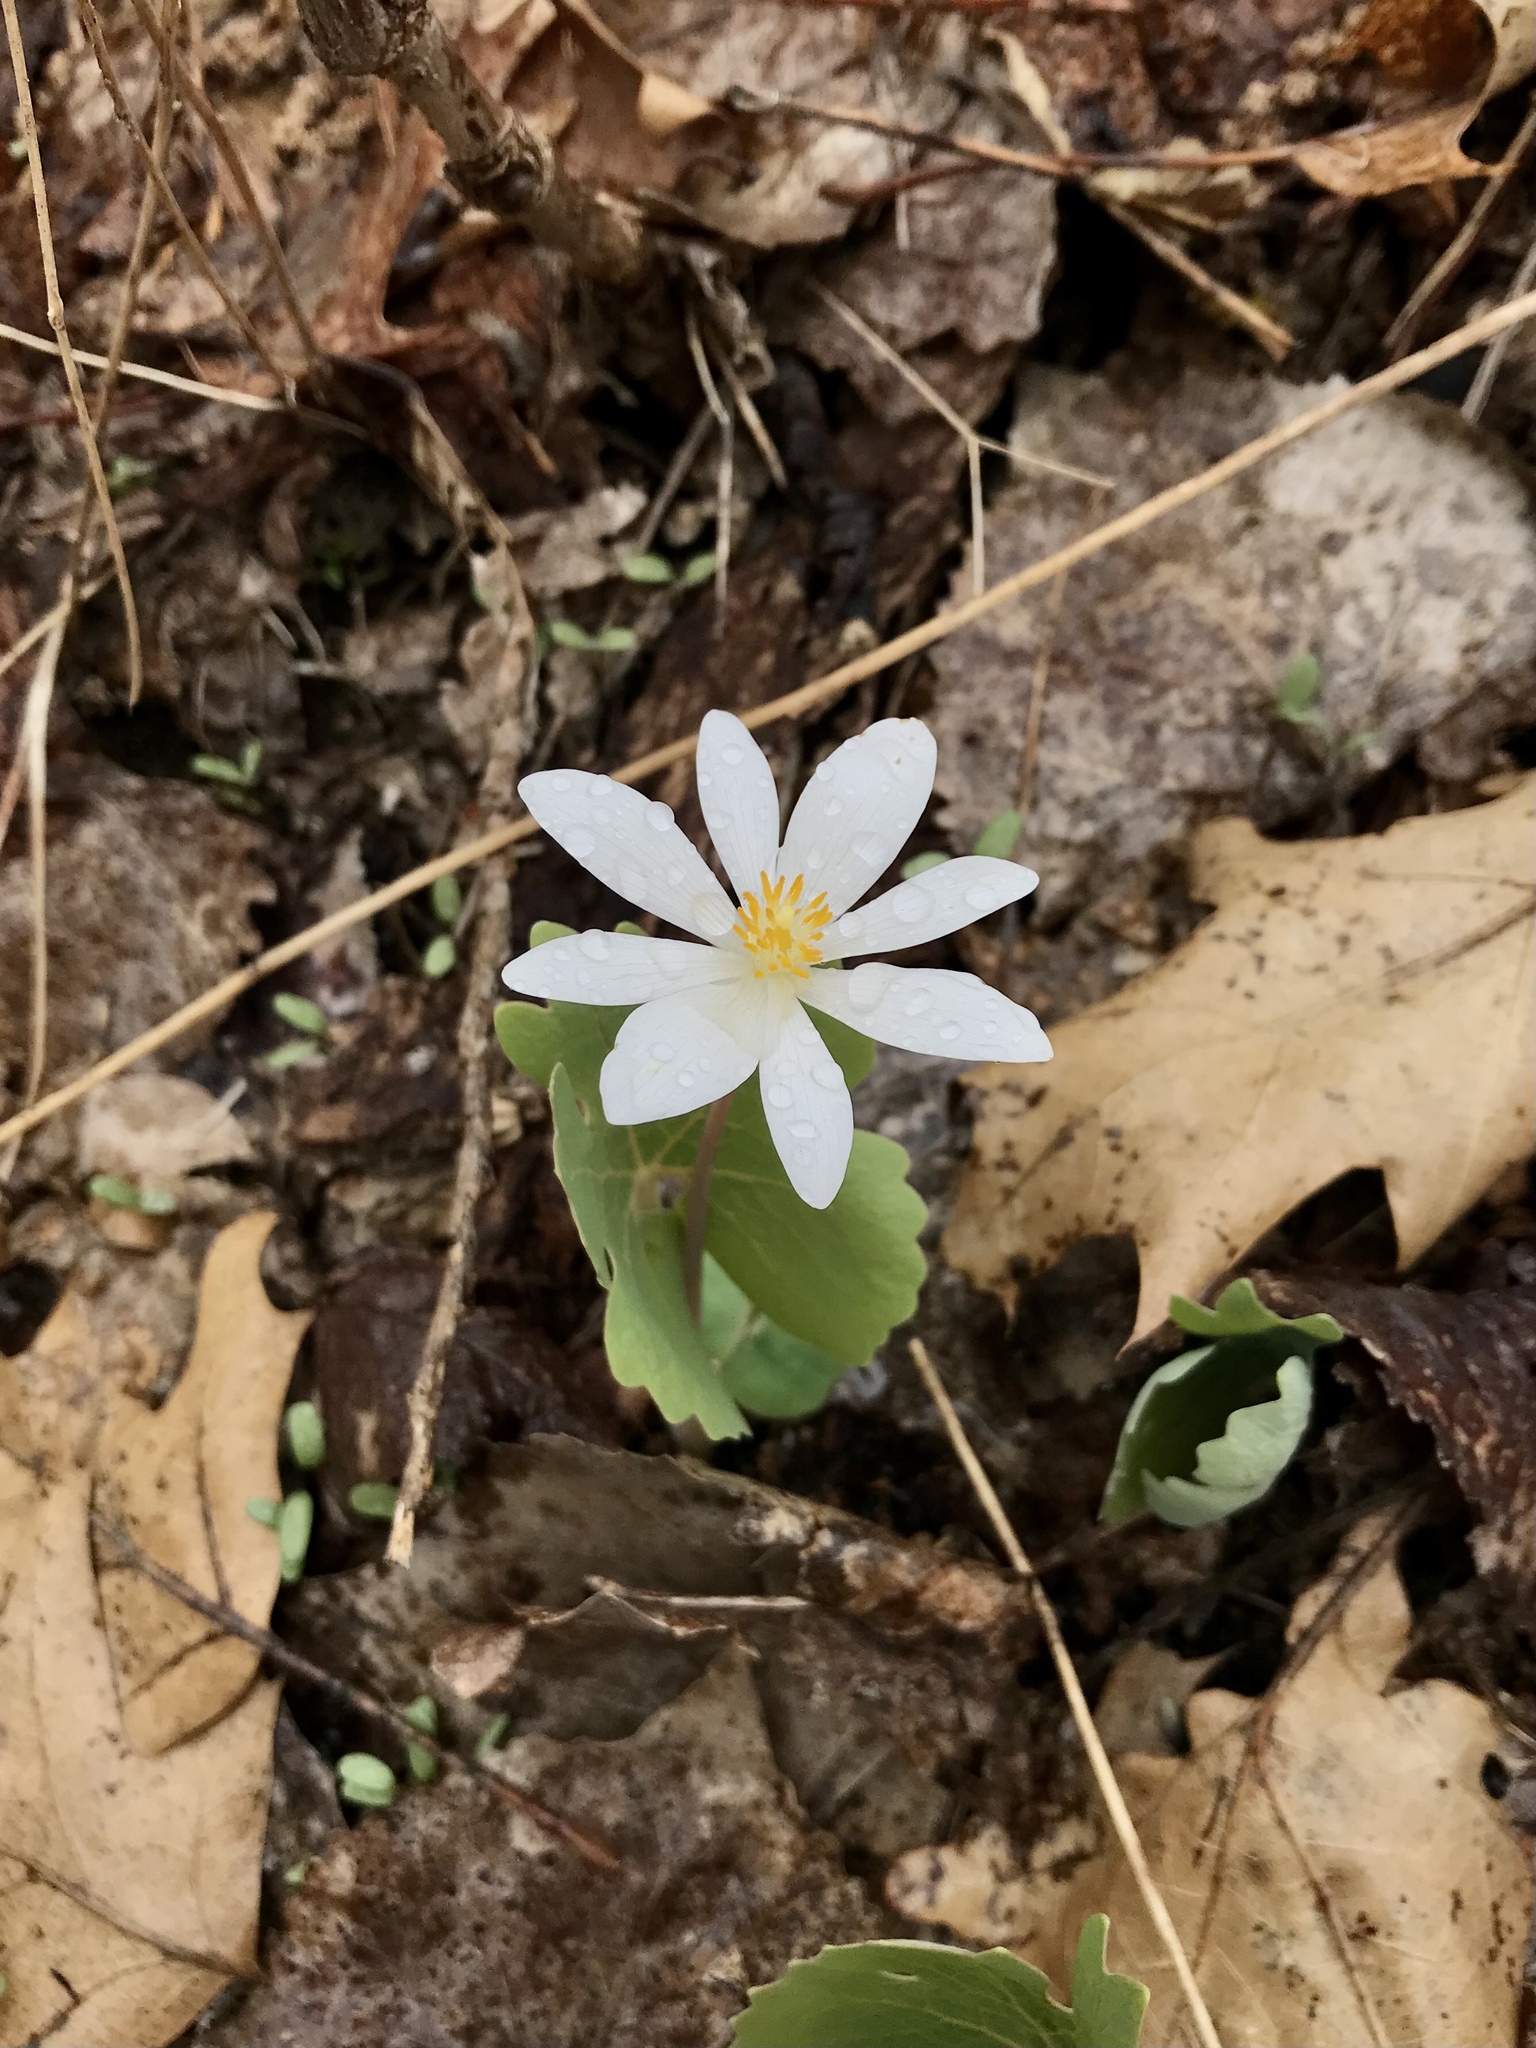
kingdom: Plantae
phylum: Tracheophyta
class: Magnoliopsida
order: Ranunculales
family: Papaveraceae
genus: Sanguinaria
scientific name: Sanguinaria canadensis
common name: Bloodroot
